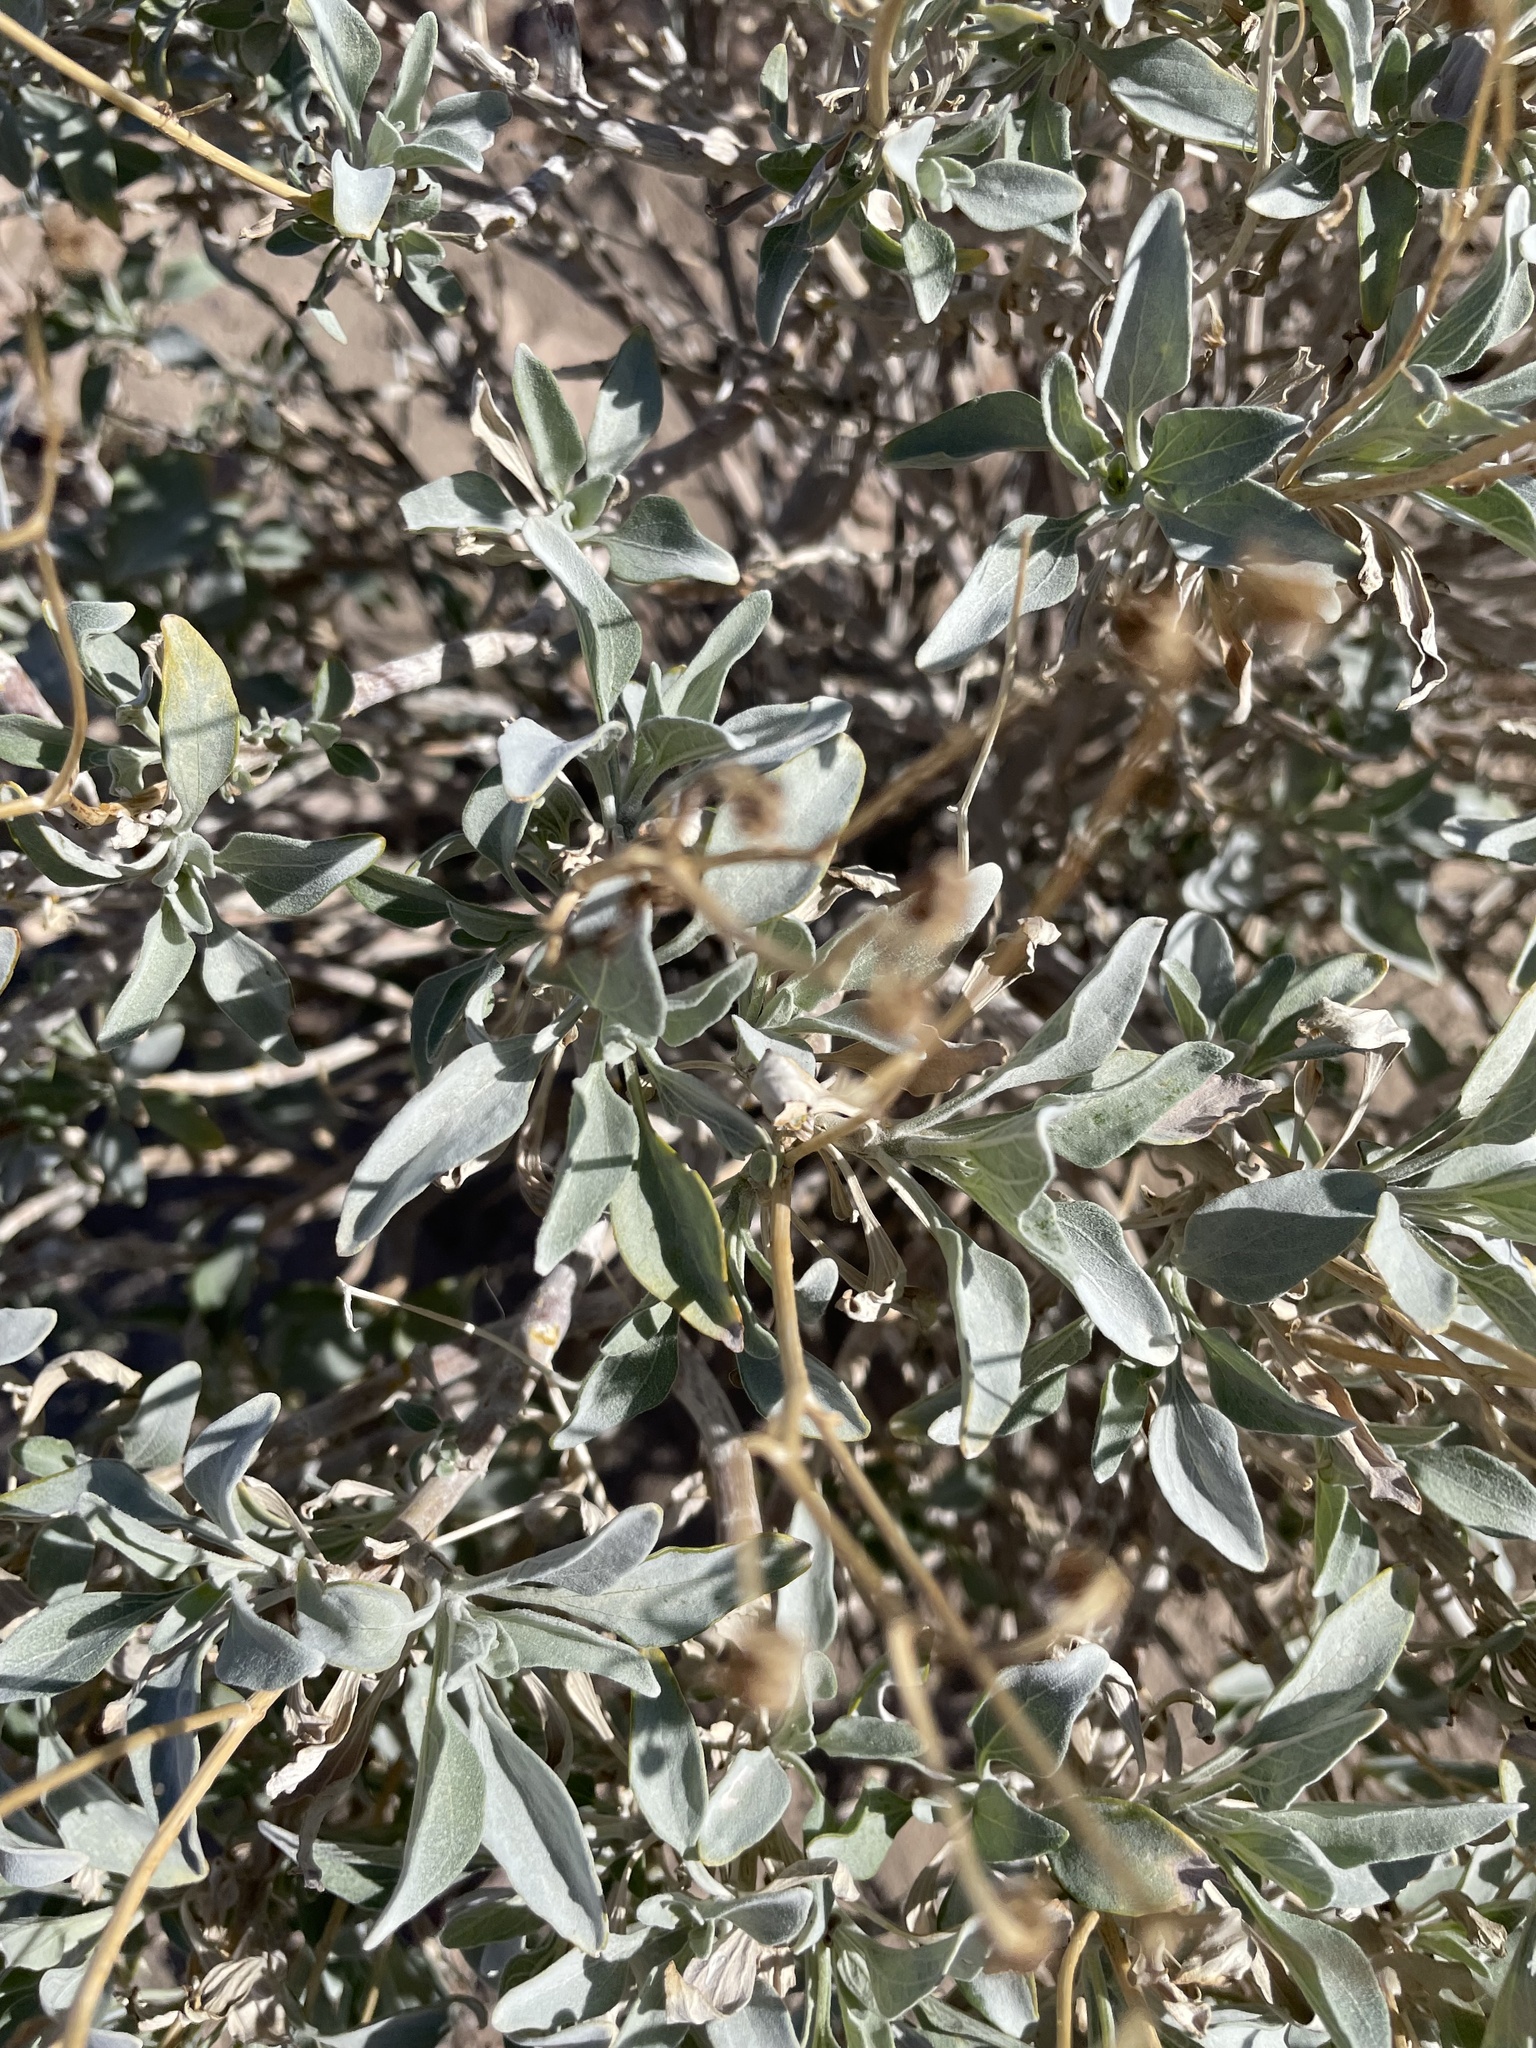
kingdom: Plantae
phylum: Tracheophyta
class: Magnoliopsida
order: Asterales
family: Asteraceae
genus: Encelia
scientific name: Encelia farinosa
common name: Brittlebush
